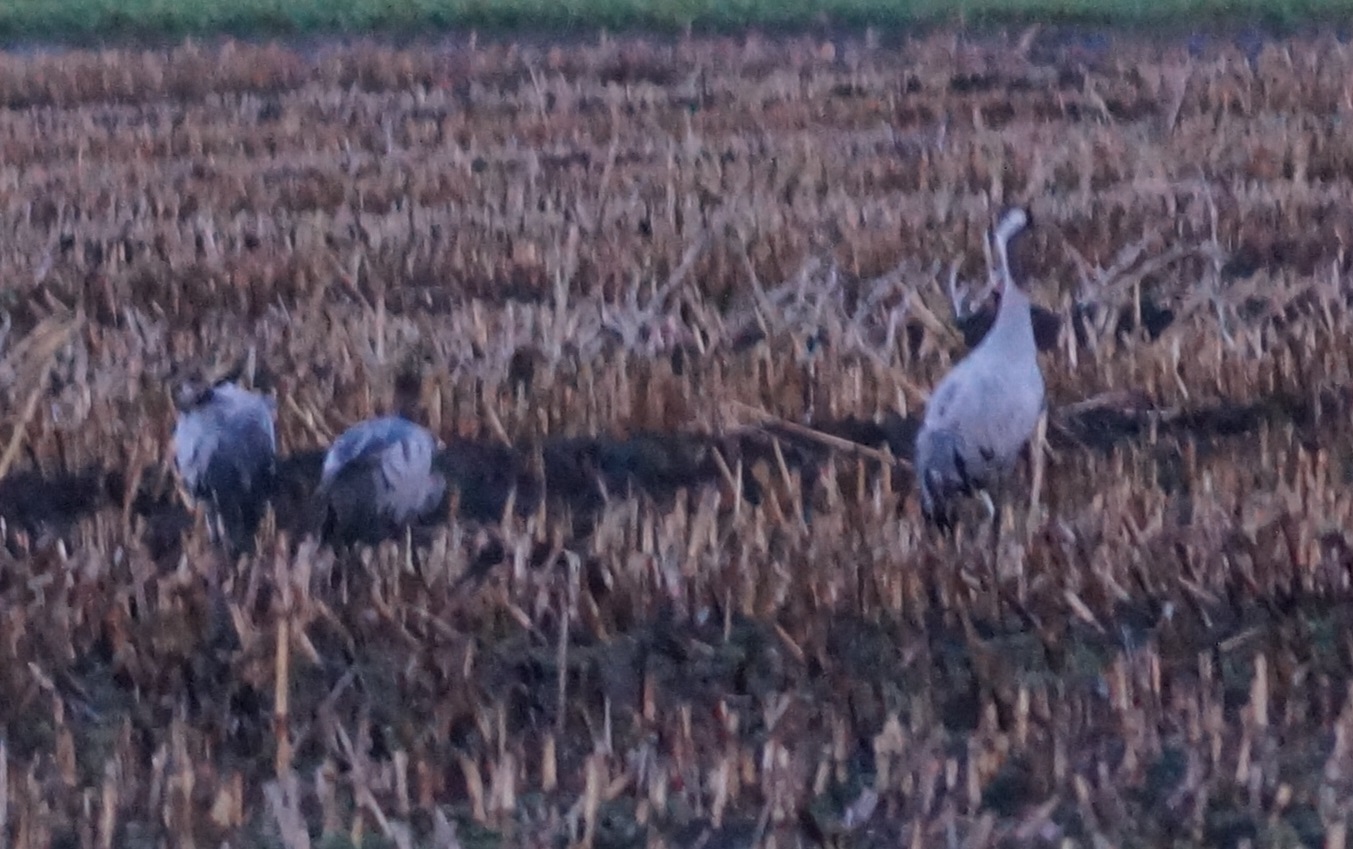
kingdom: Animalia
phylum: Chordata
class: Aves
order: Gruiformes
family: Gruidae
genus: Grus
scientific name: Grus grus
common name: Common crane
